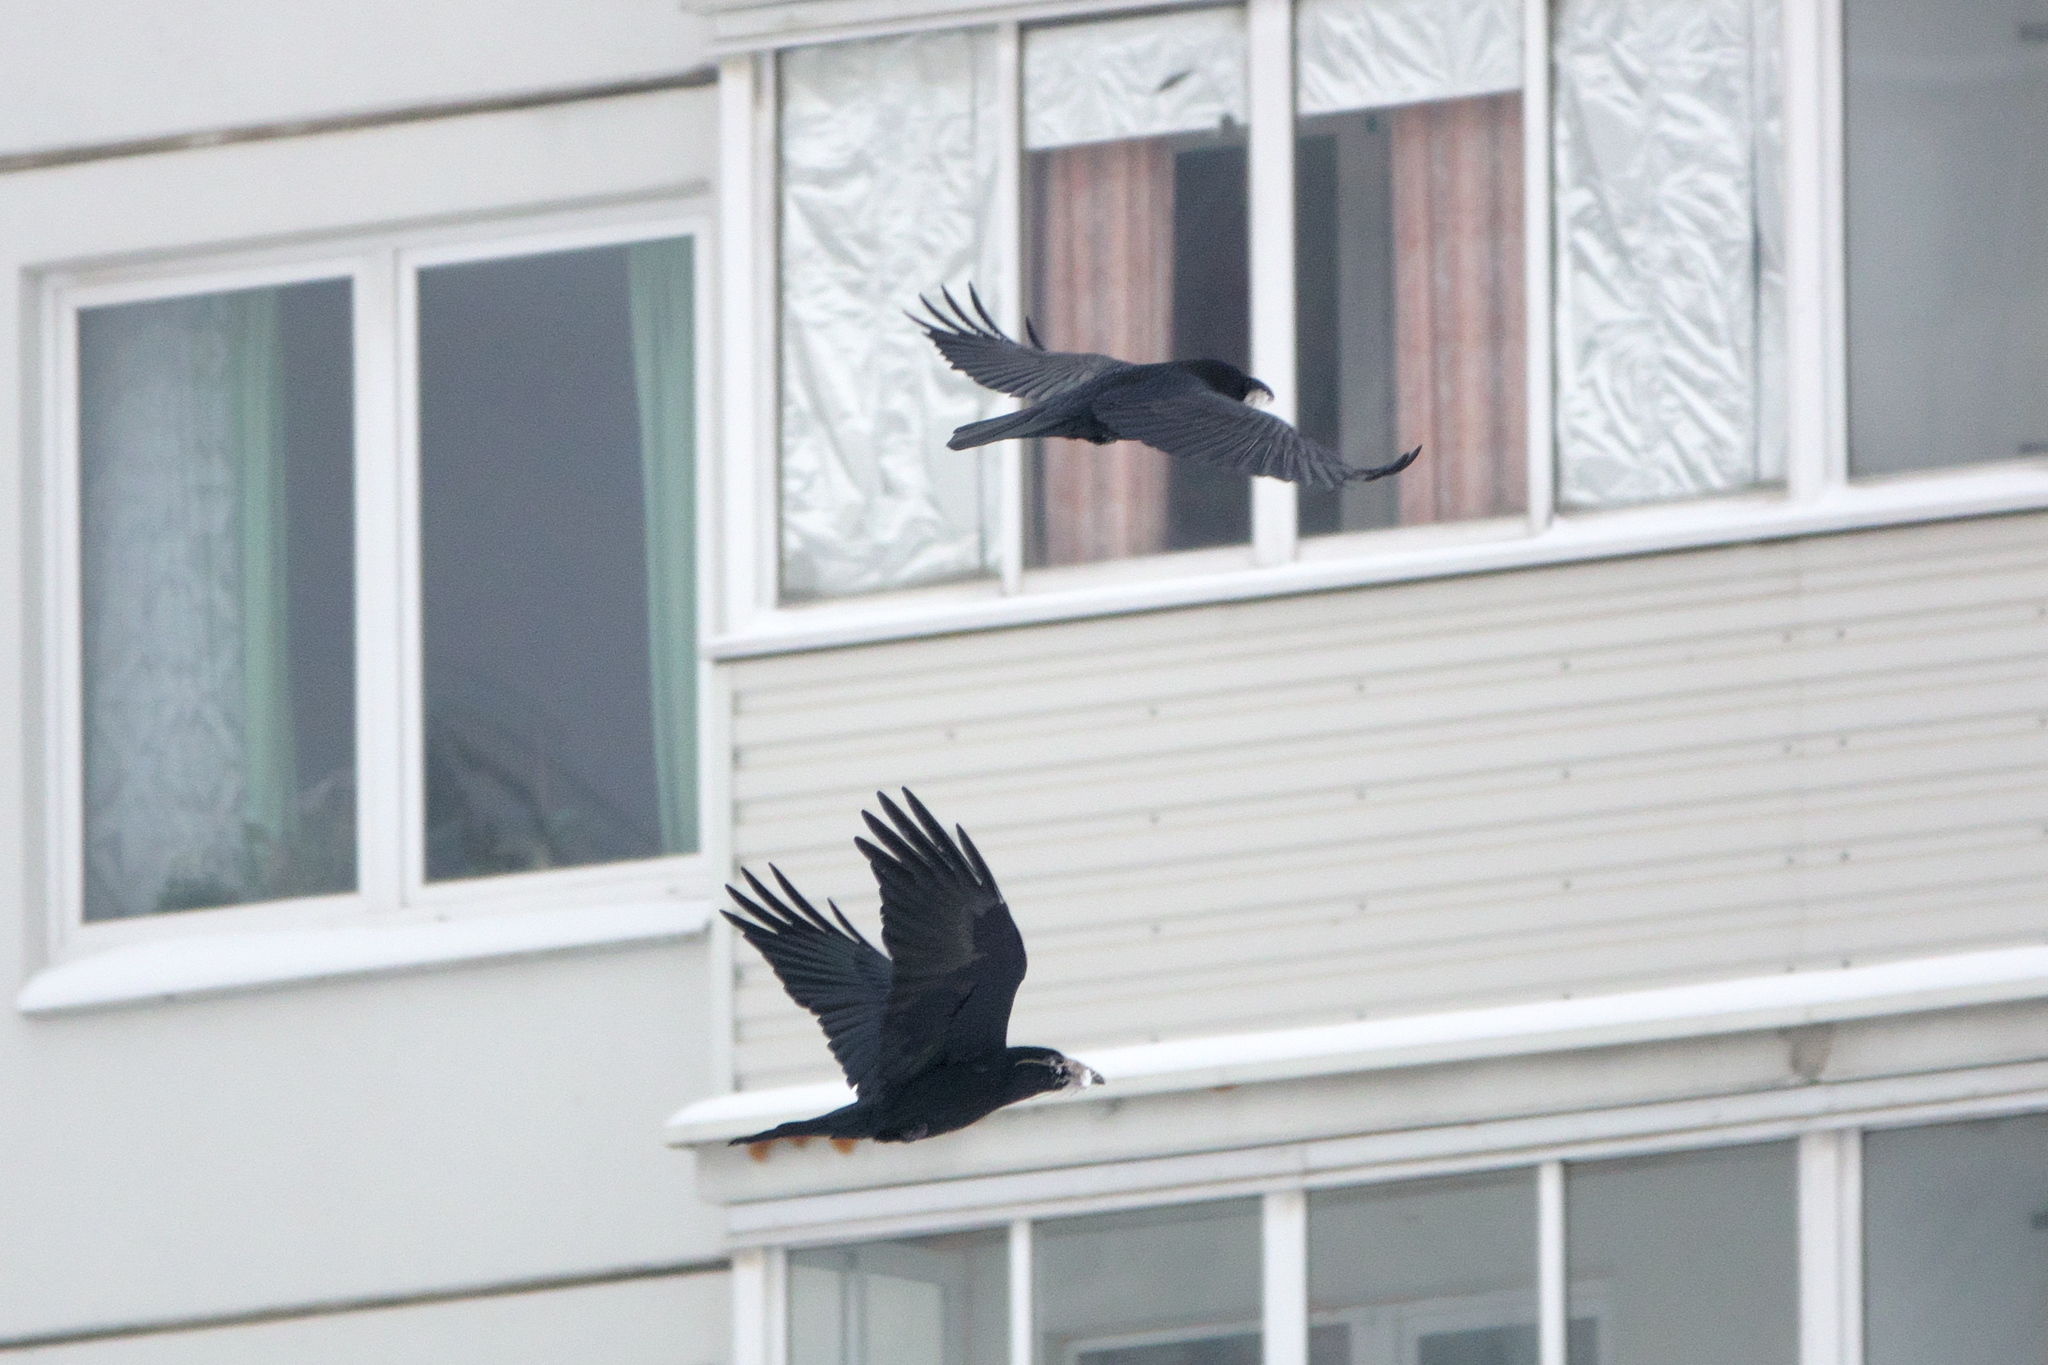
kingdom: Animalia
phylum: Chordata
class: Aves
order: Passeriformes
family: Corvidae
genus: Corvus
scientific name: Corvus frugilegus
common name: Rook
